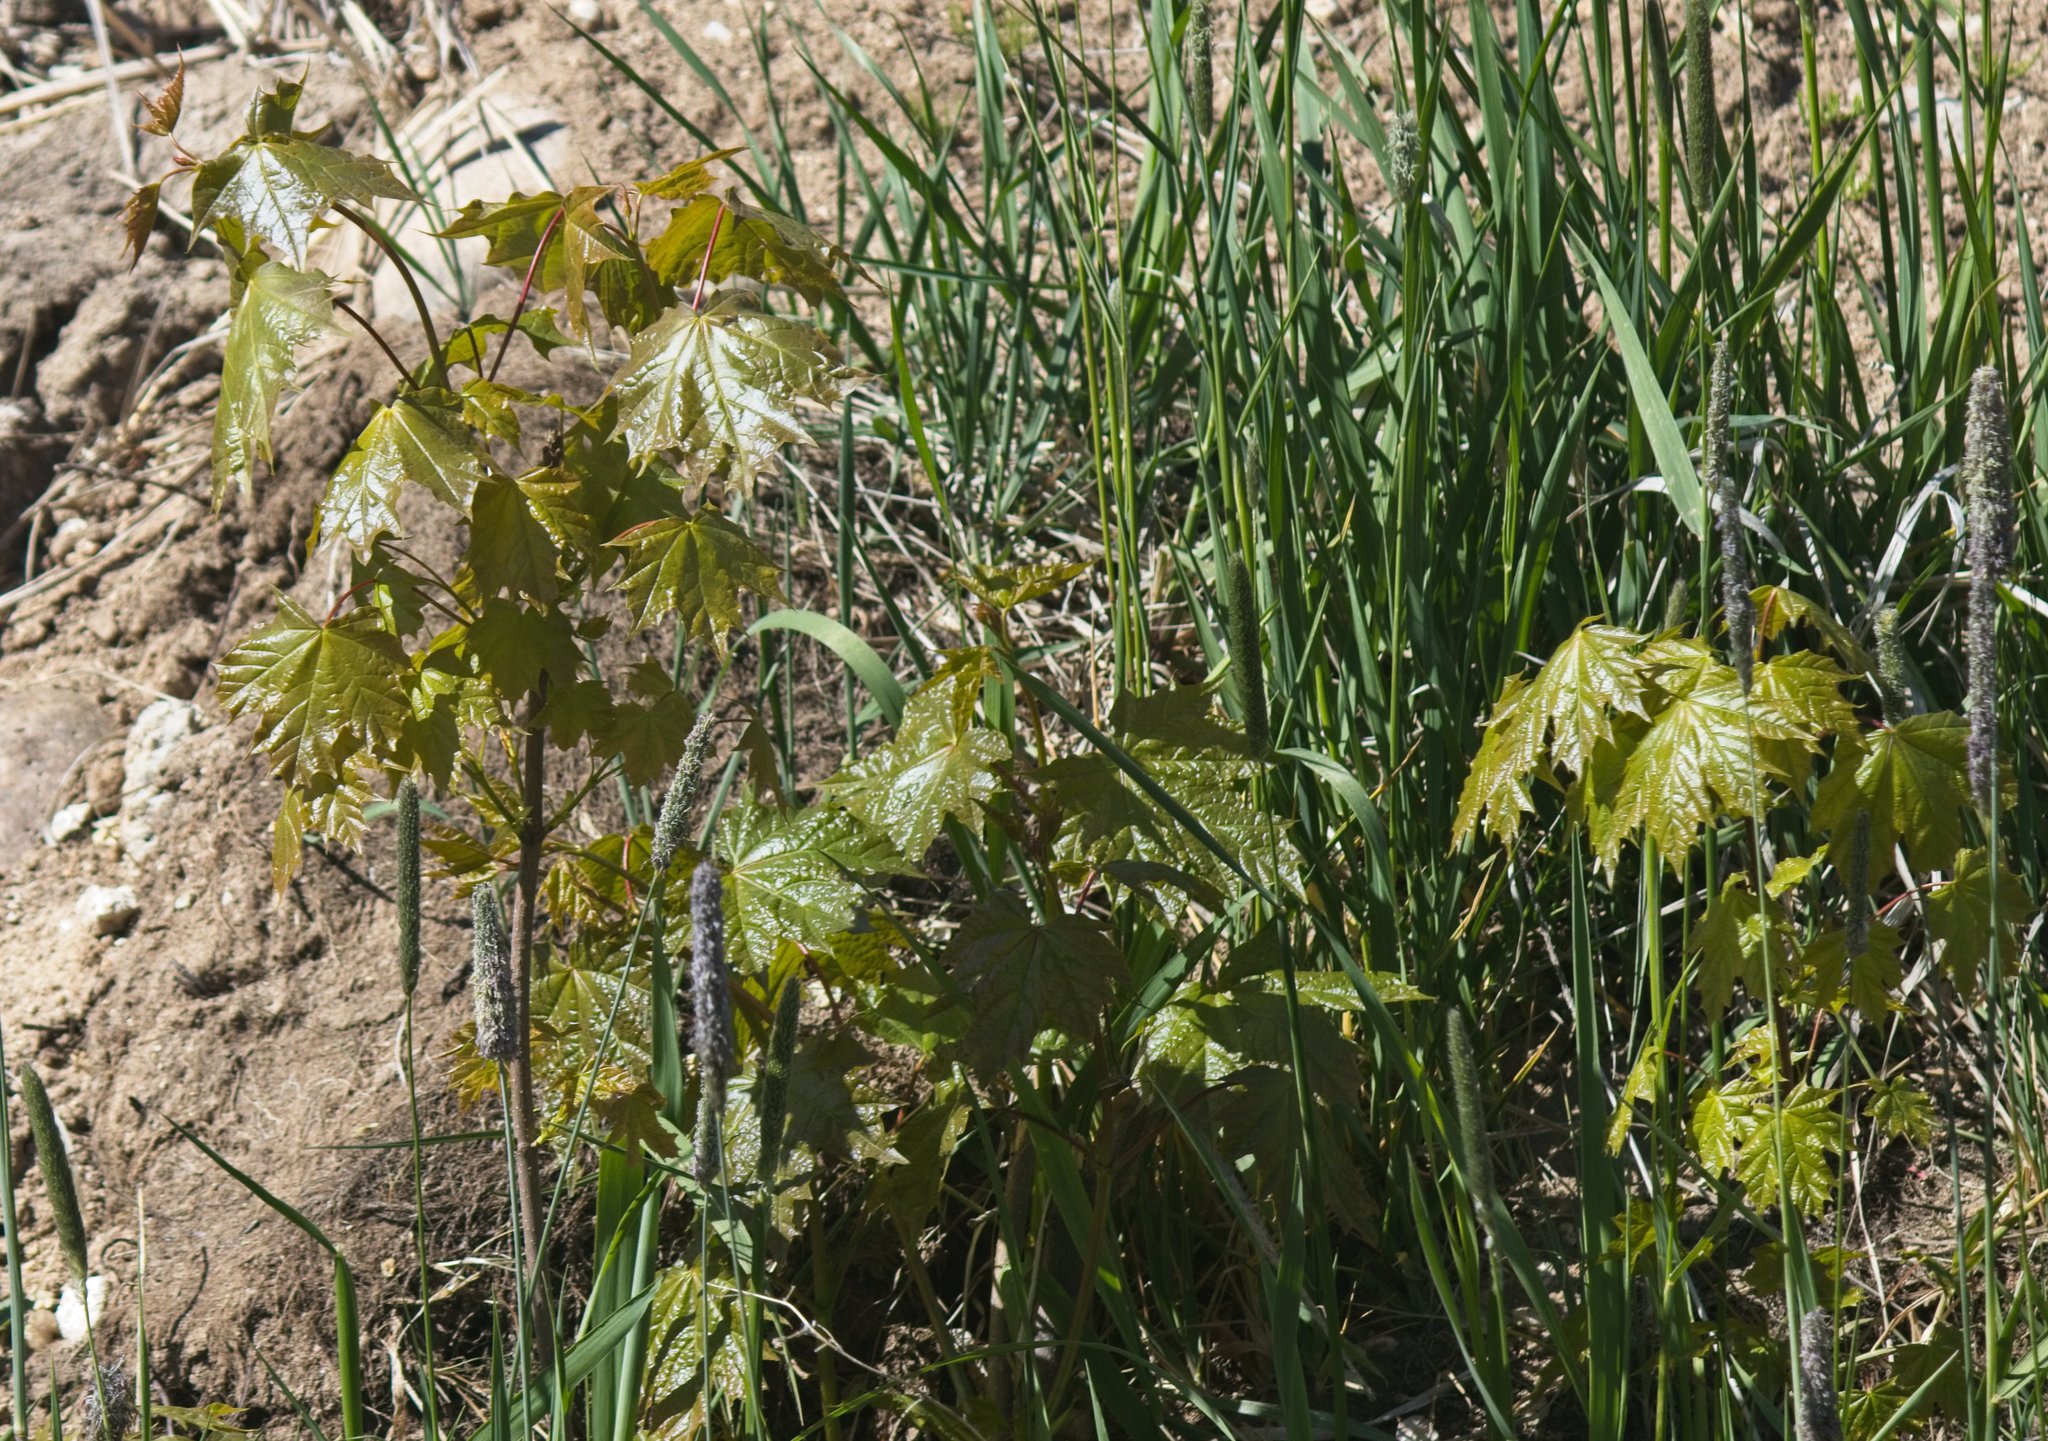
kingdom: Plantae
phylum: Tracheophyta
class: Magnoliopsida
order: Sapindales
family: Sapindaceae
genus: Acer
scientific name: Acer platanoides
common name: Norway maple
